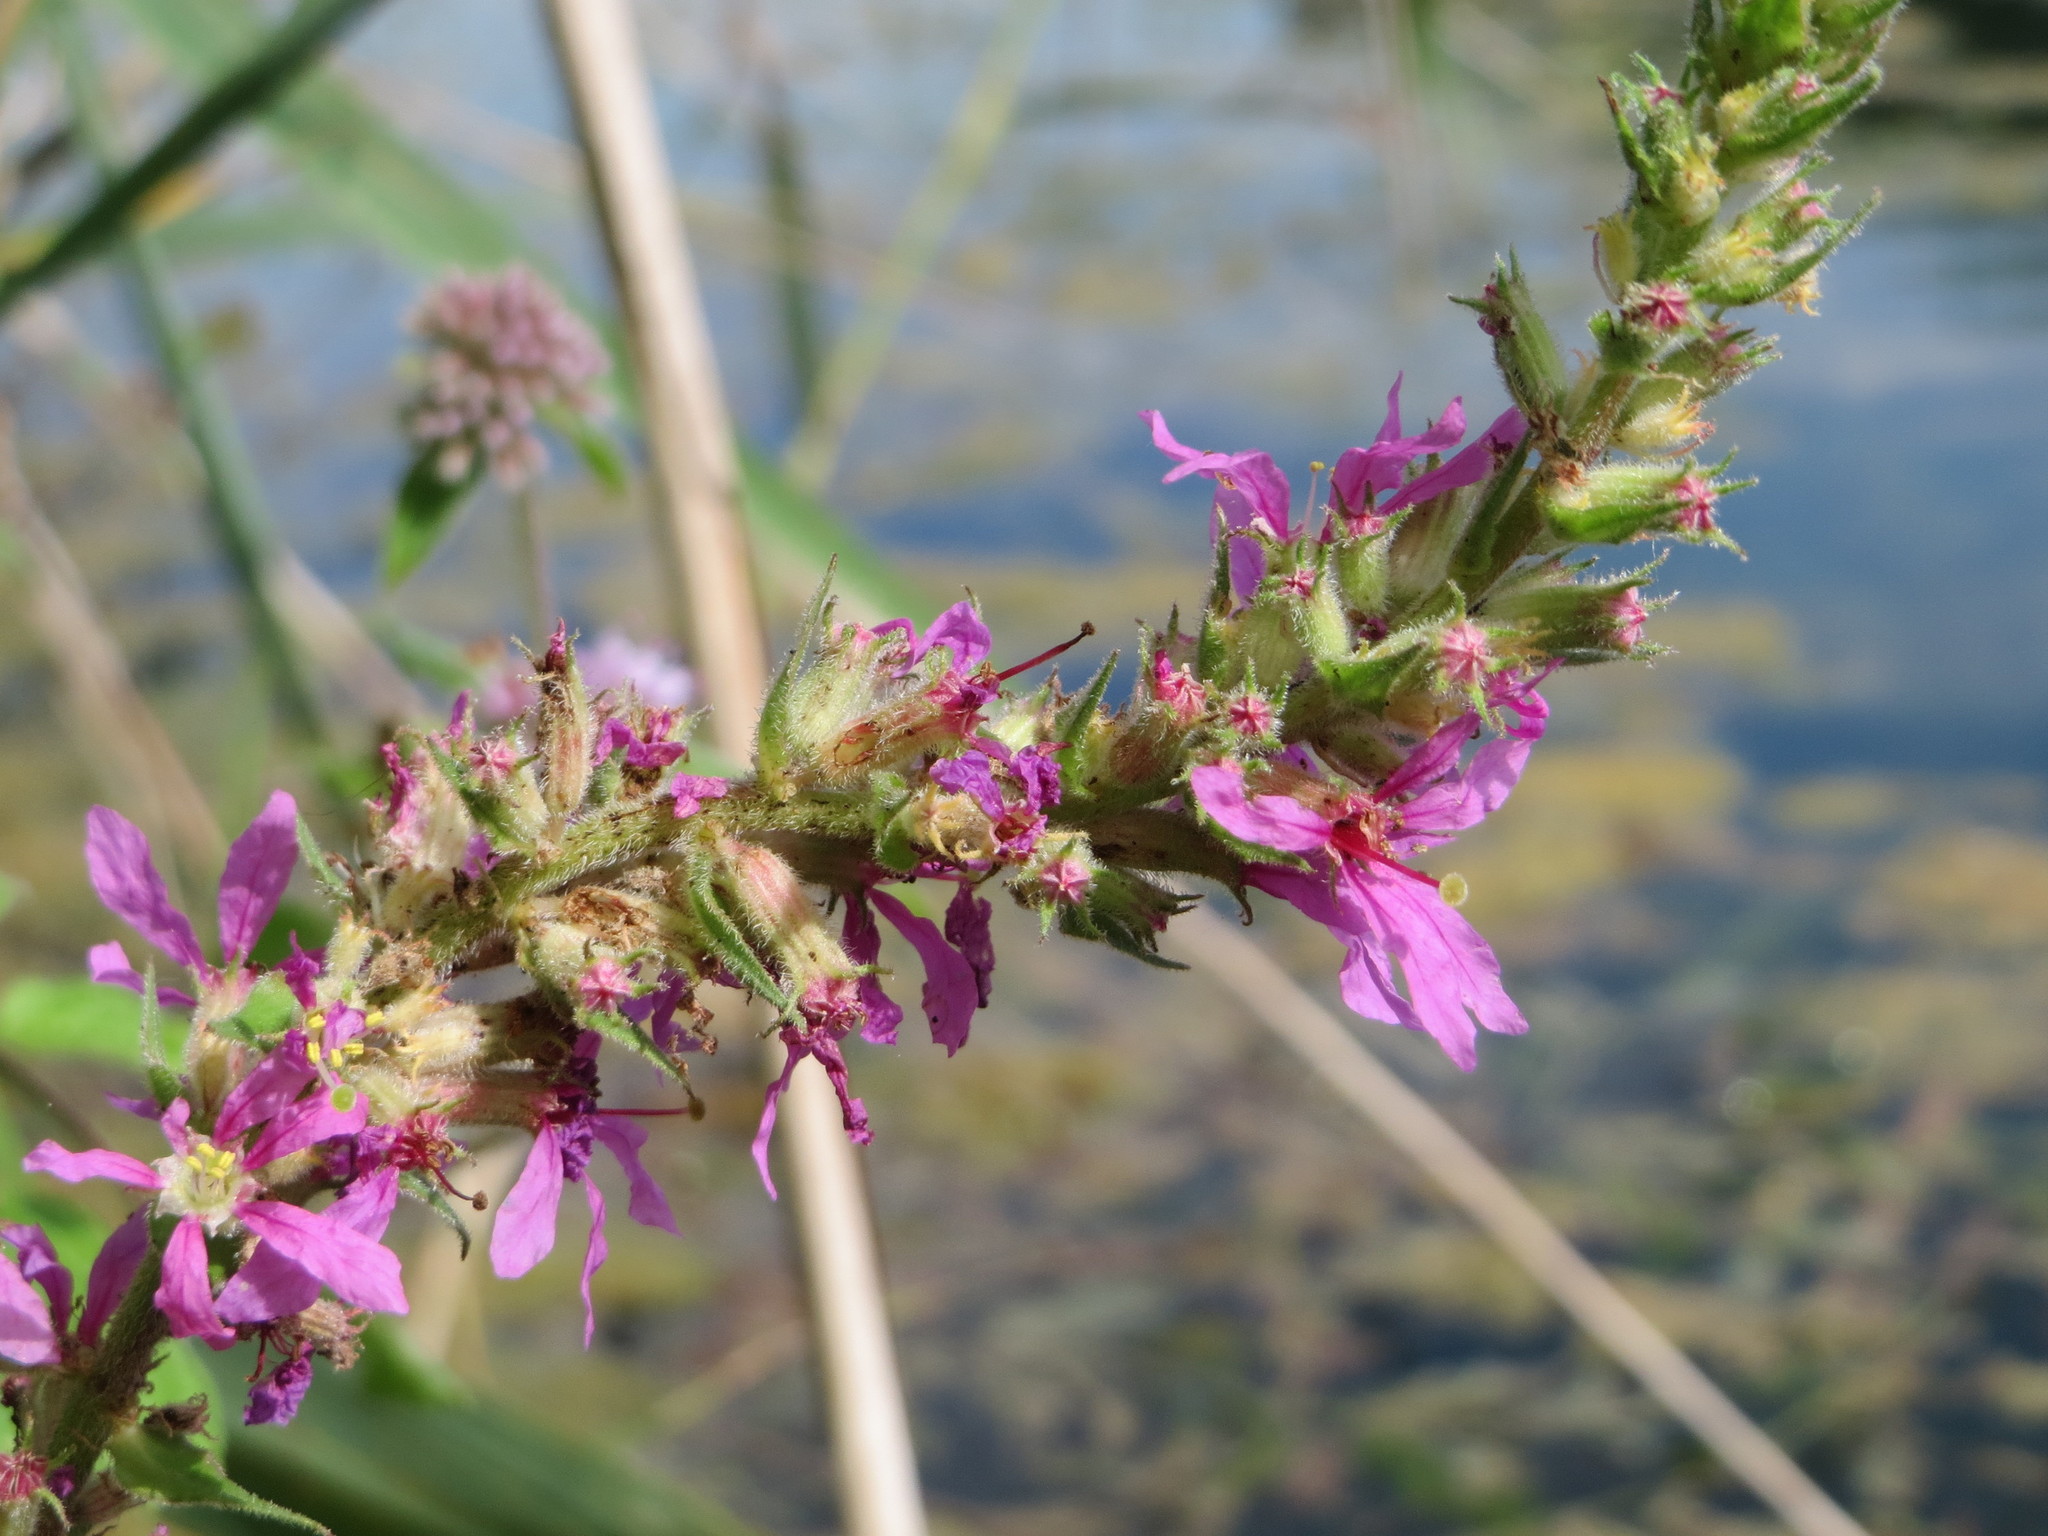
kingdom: Plantae
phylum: Tracheophyta
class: Magnoliopsida
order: Myrtales
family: Lythraceae
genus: Lythrum
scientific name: Lythrum salicaria
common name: Purple loosestrife
